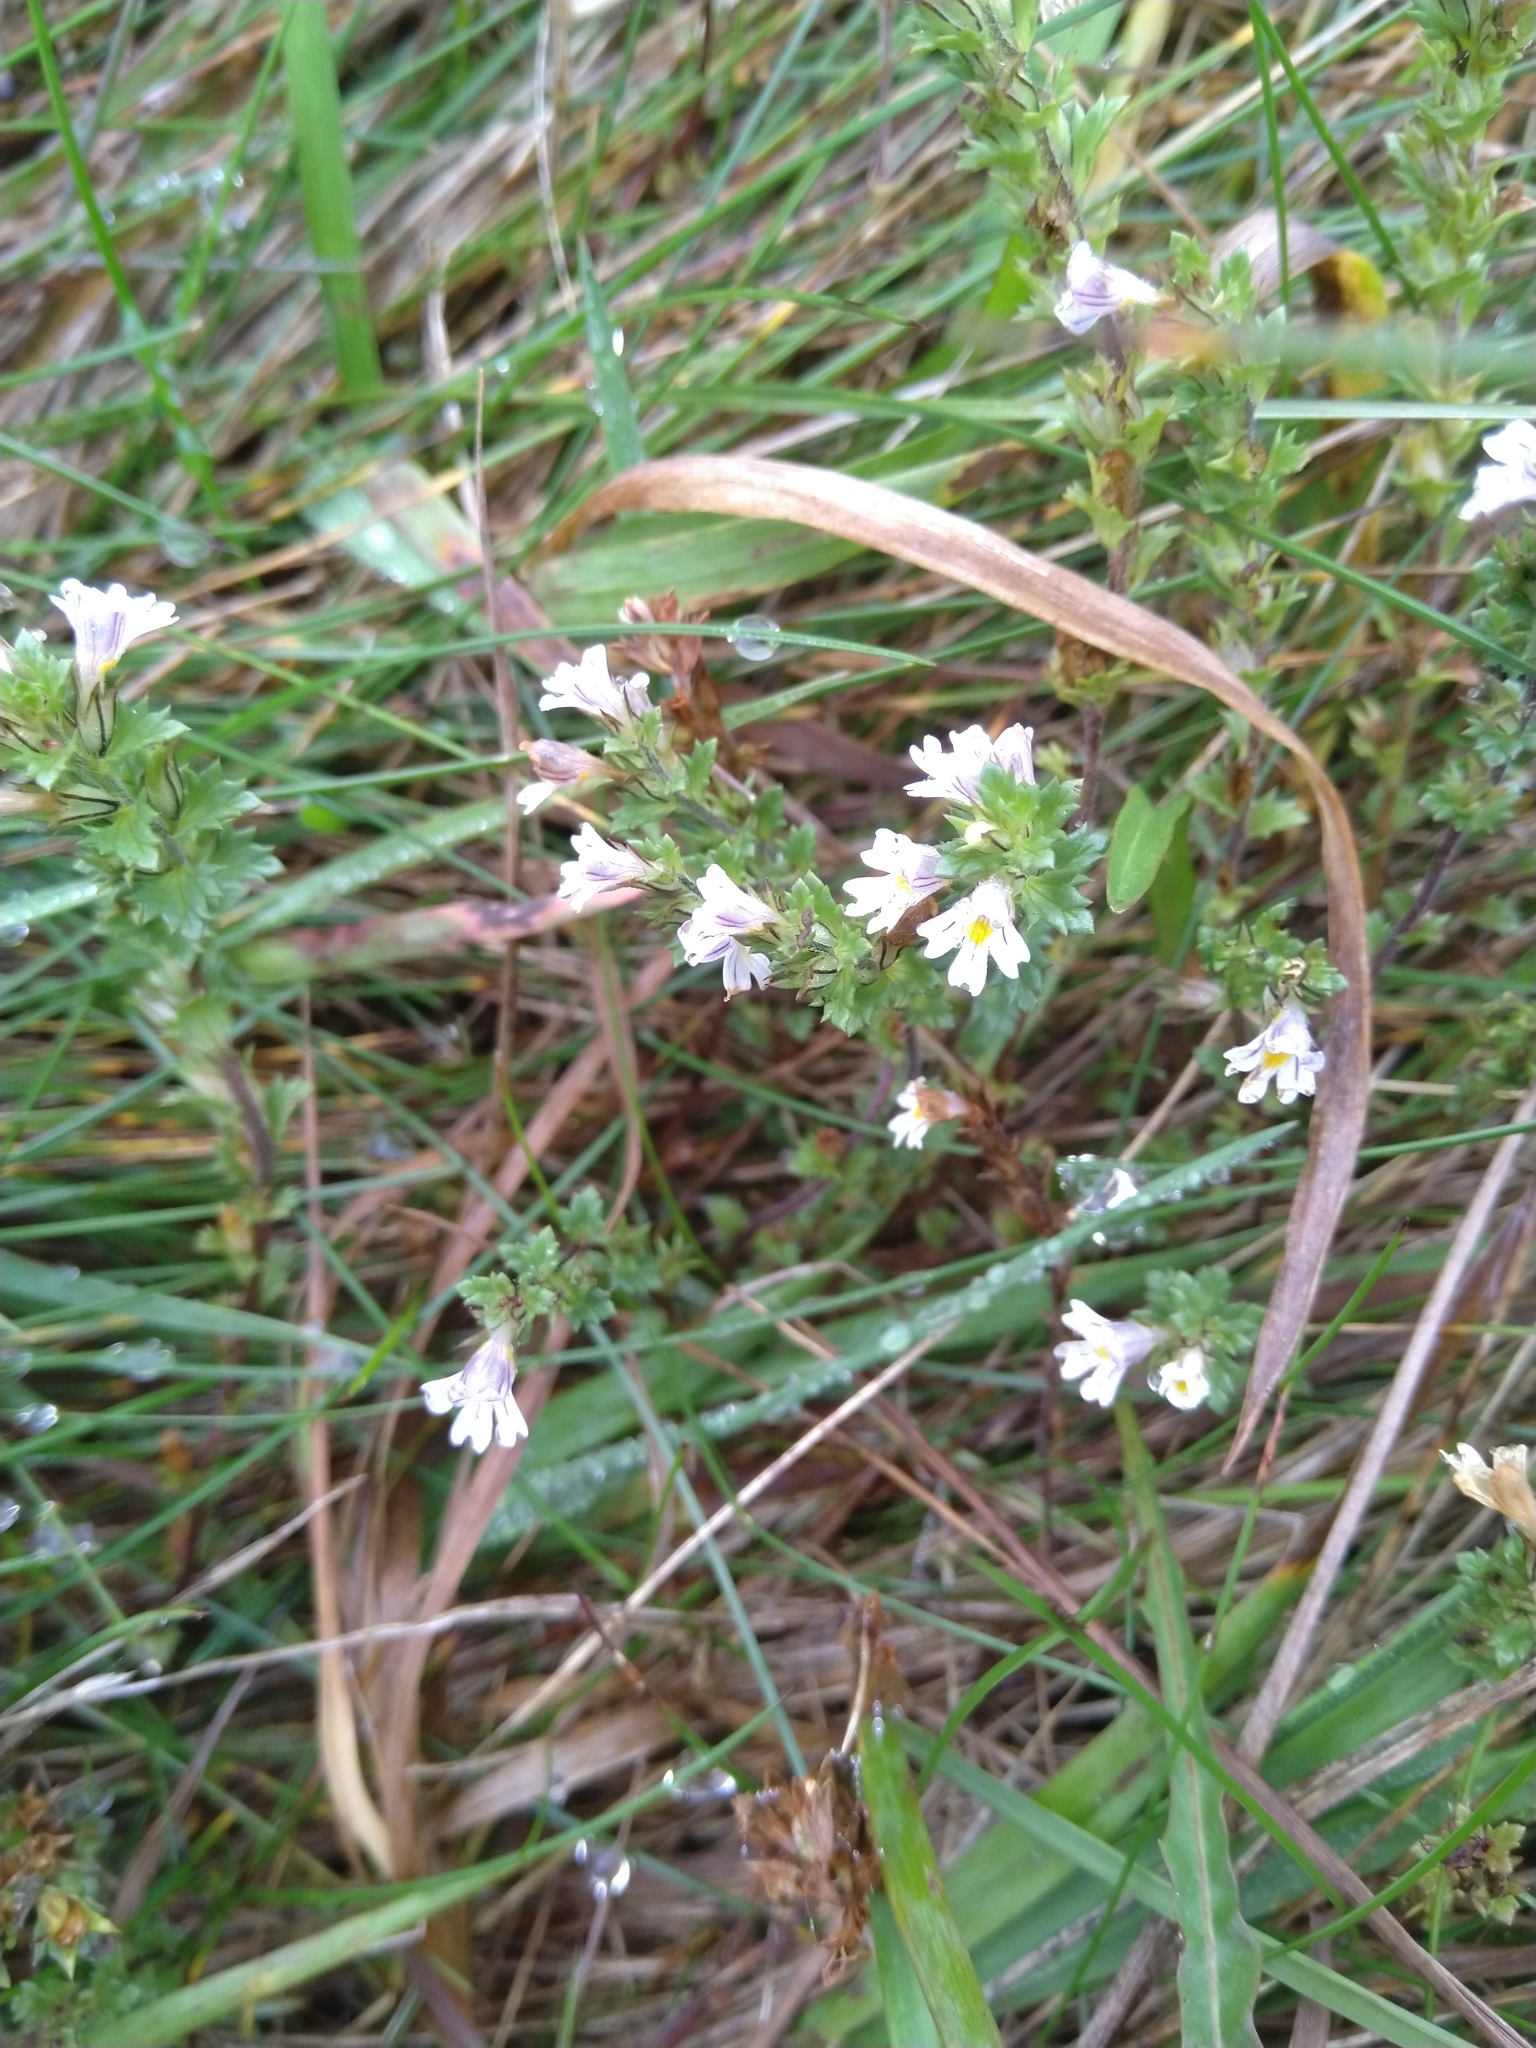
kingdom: Plantae
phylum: Tracheophyta
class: Magnoliopsida
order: Lamiales
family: Orobanchaceae
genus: Euphrasia
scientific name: Euphrasia nemorosa
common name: Common eyebright
